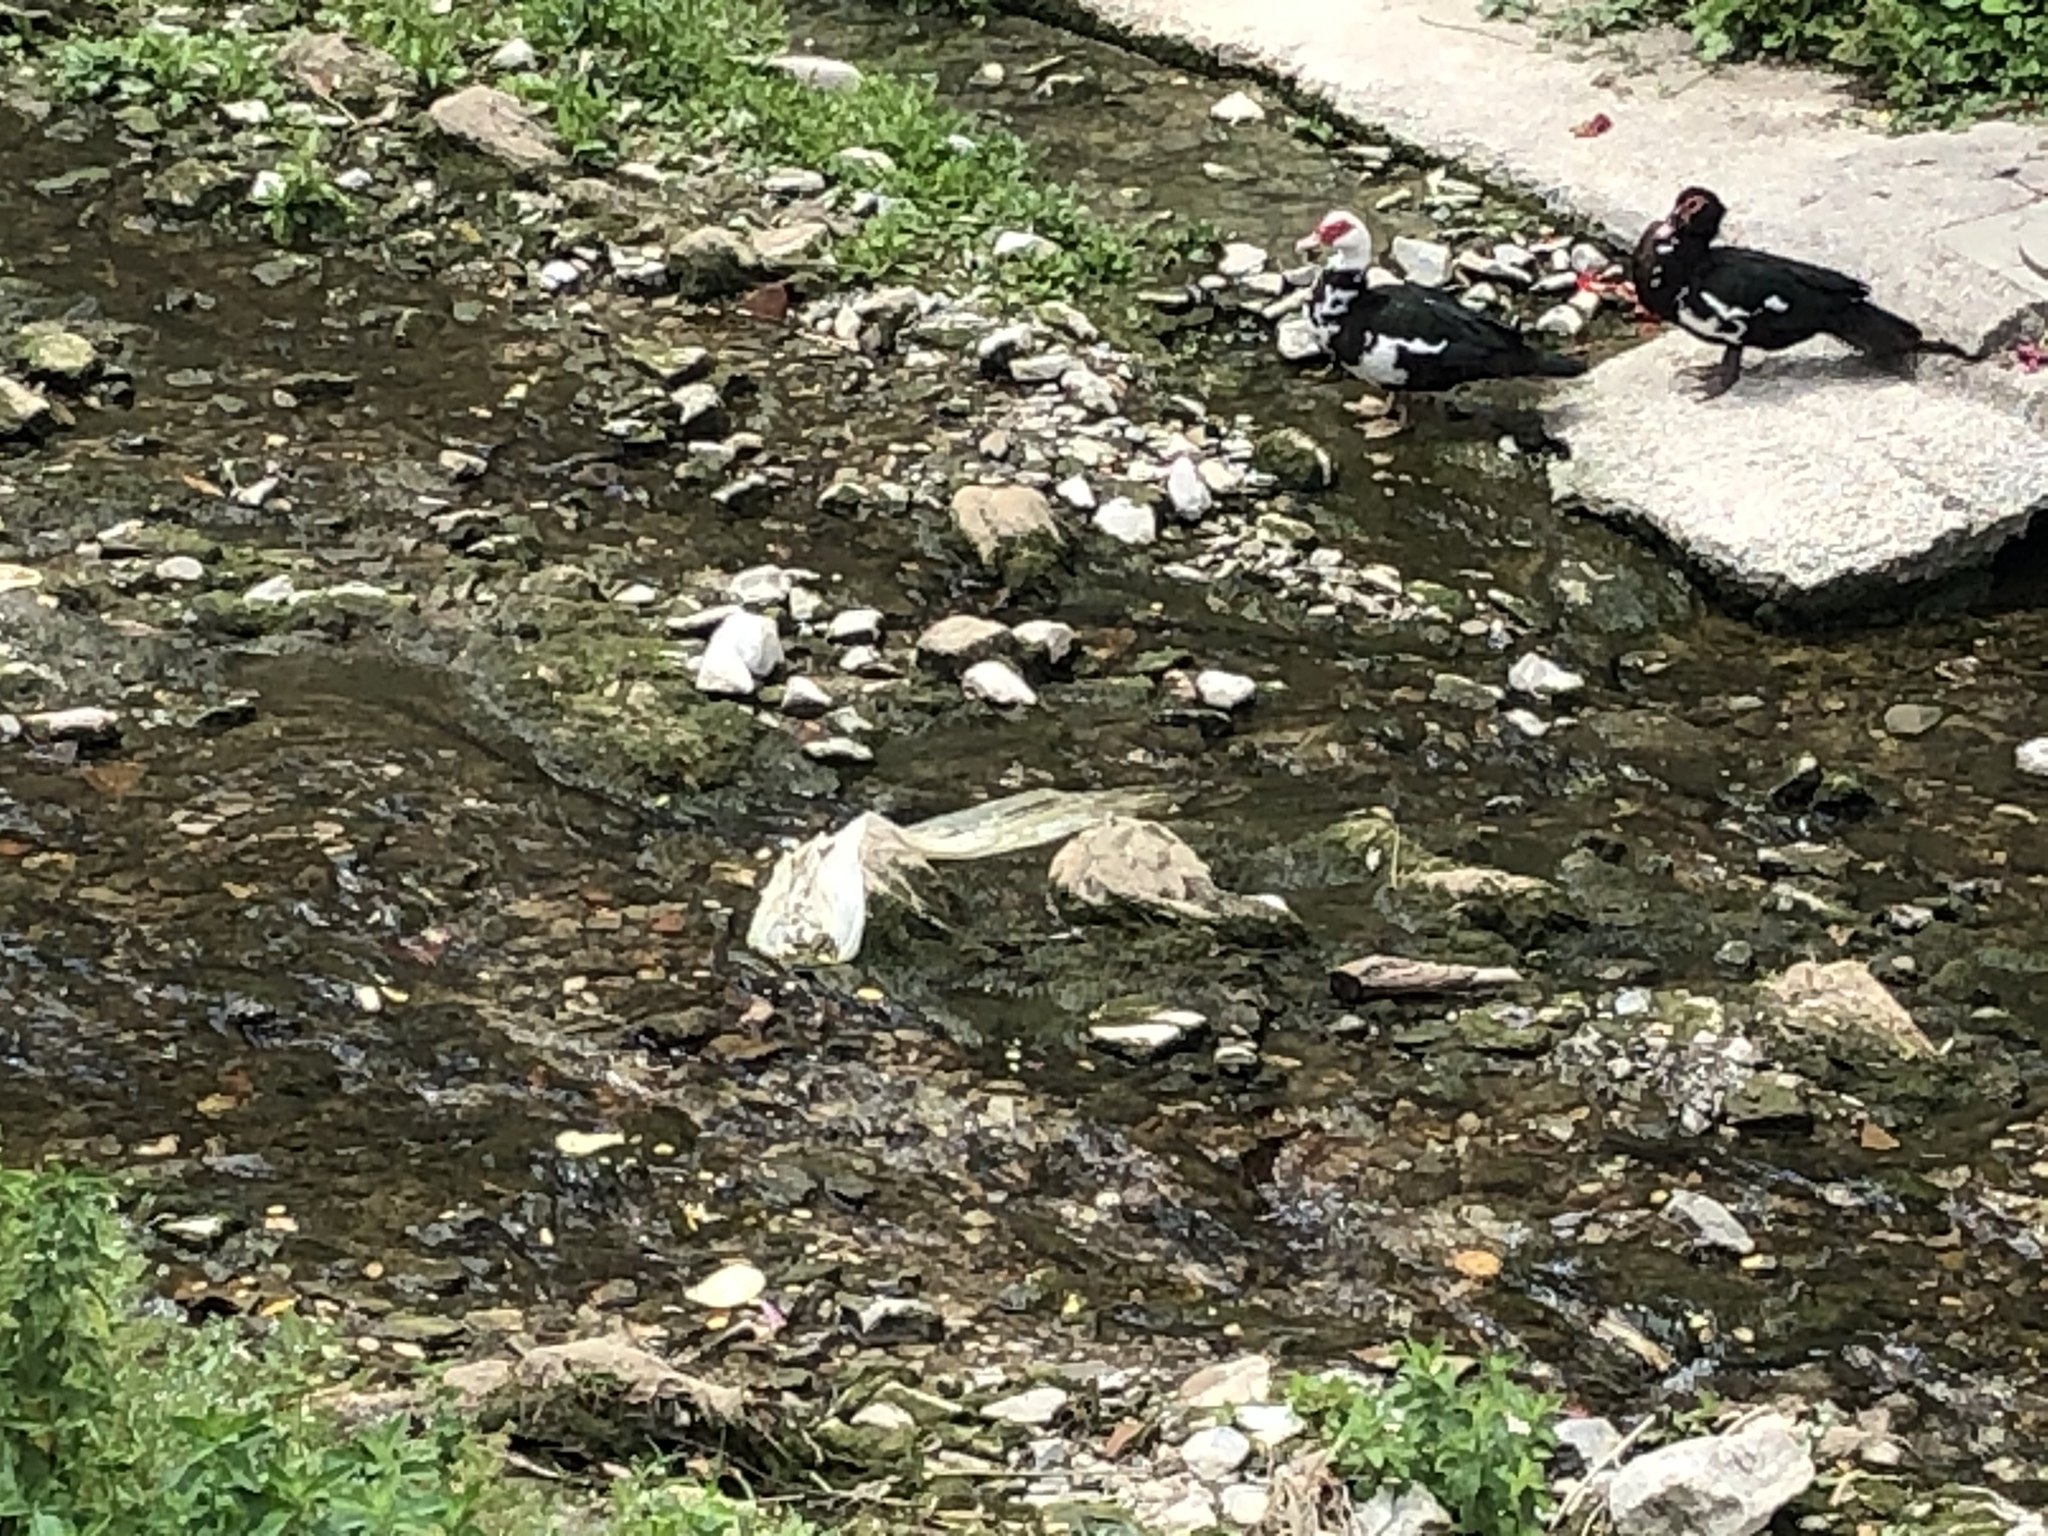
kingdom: Animalia
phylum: Chordata
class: Aves
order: Anseriformes
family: Anatidae
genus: Cairina
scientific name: Cairina moschata
